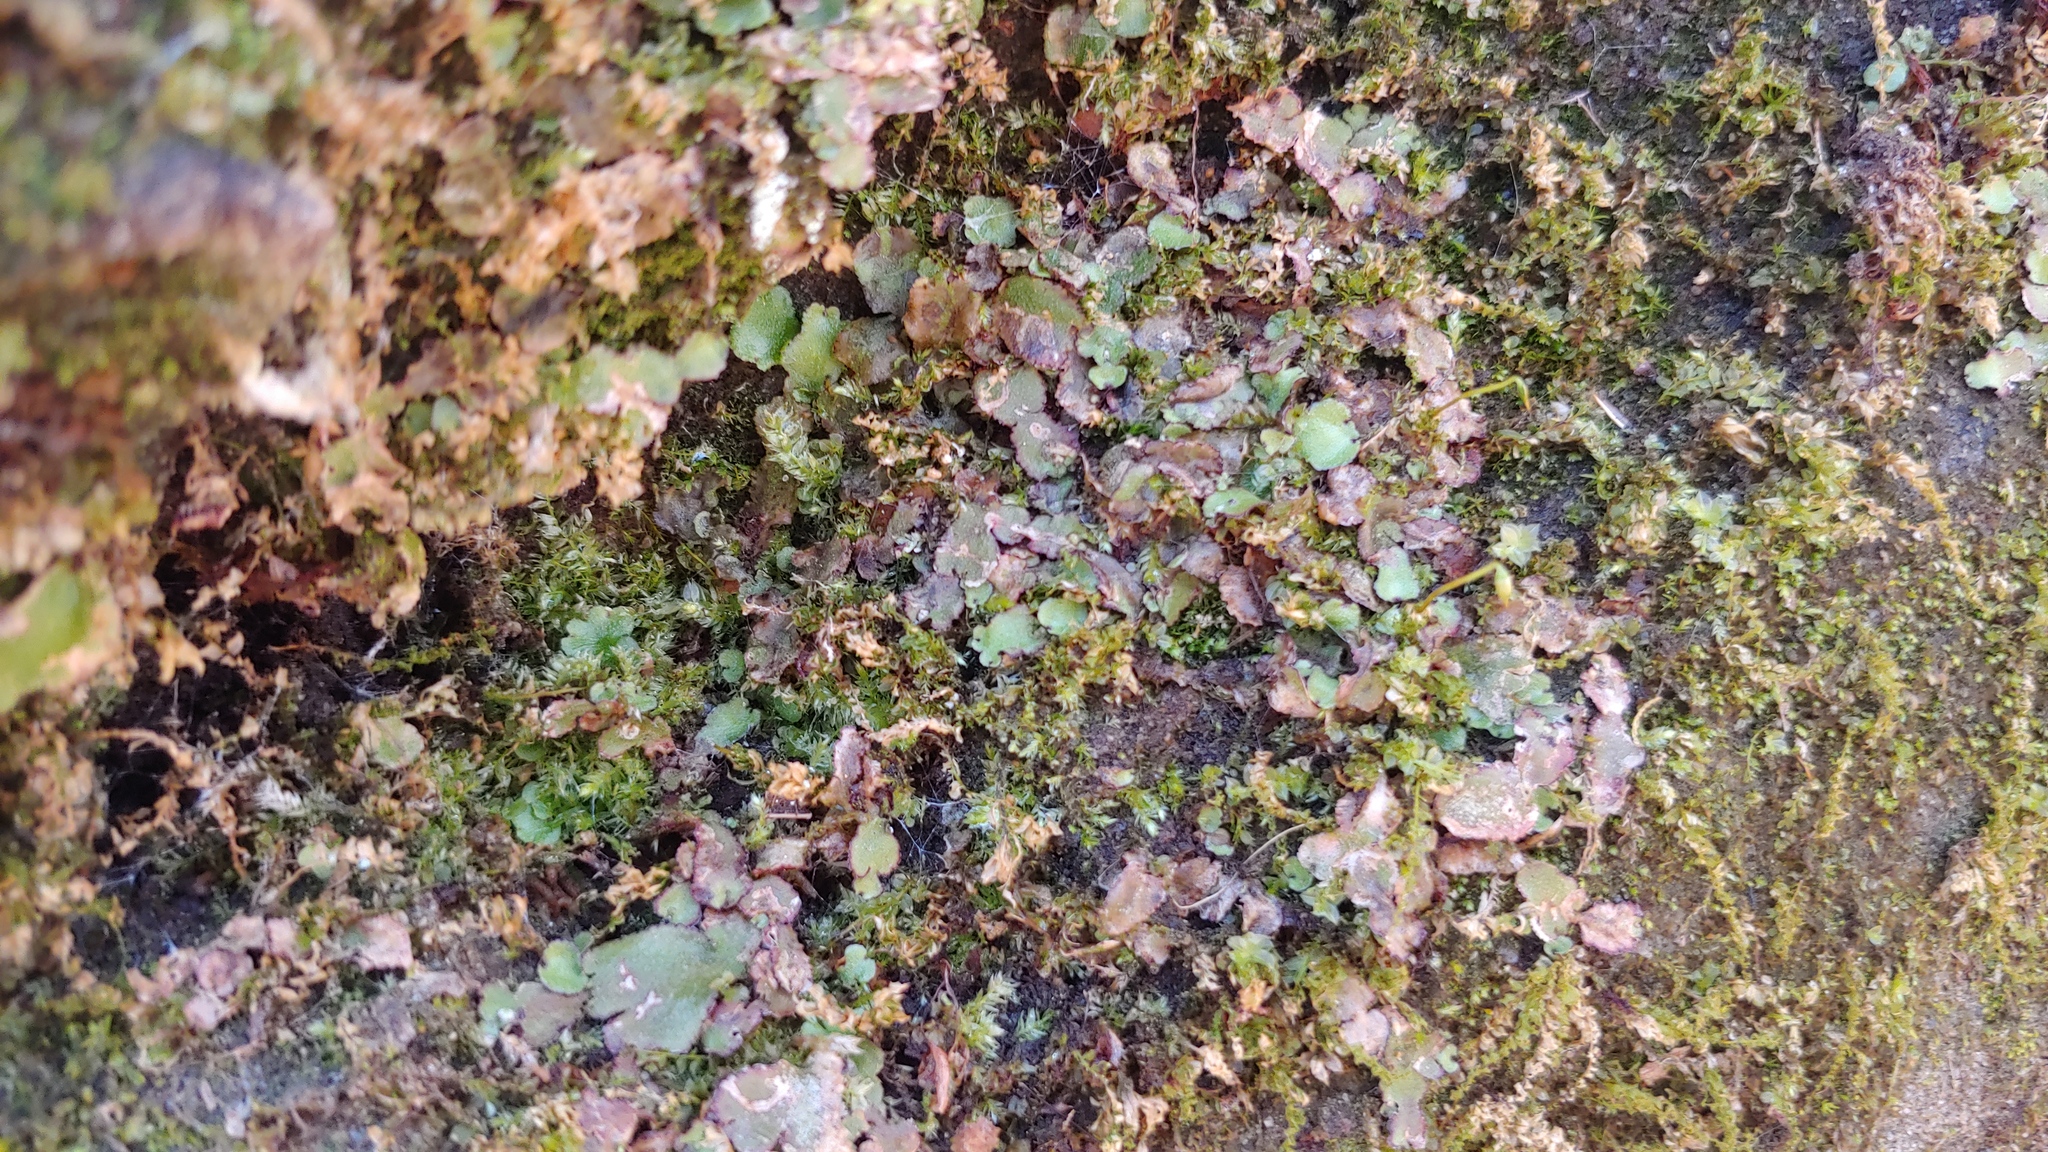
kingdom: Plantae
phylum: Marchantiophyta
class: Marchantiopsida
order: Marchantiales
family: Aytoniaceae
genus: Reboulia
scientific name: Reboulia hemisphaerica
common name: Purple-margined liverwort
